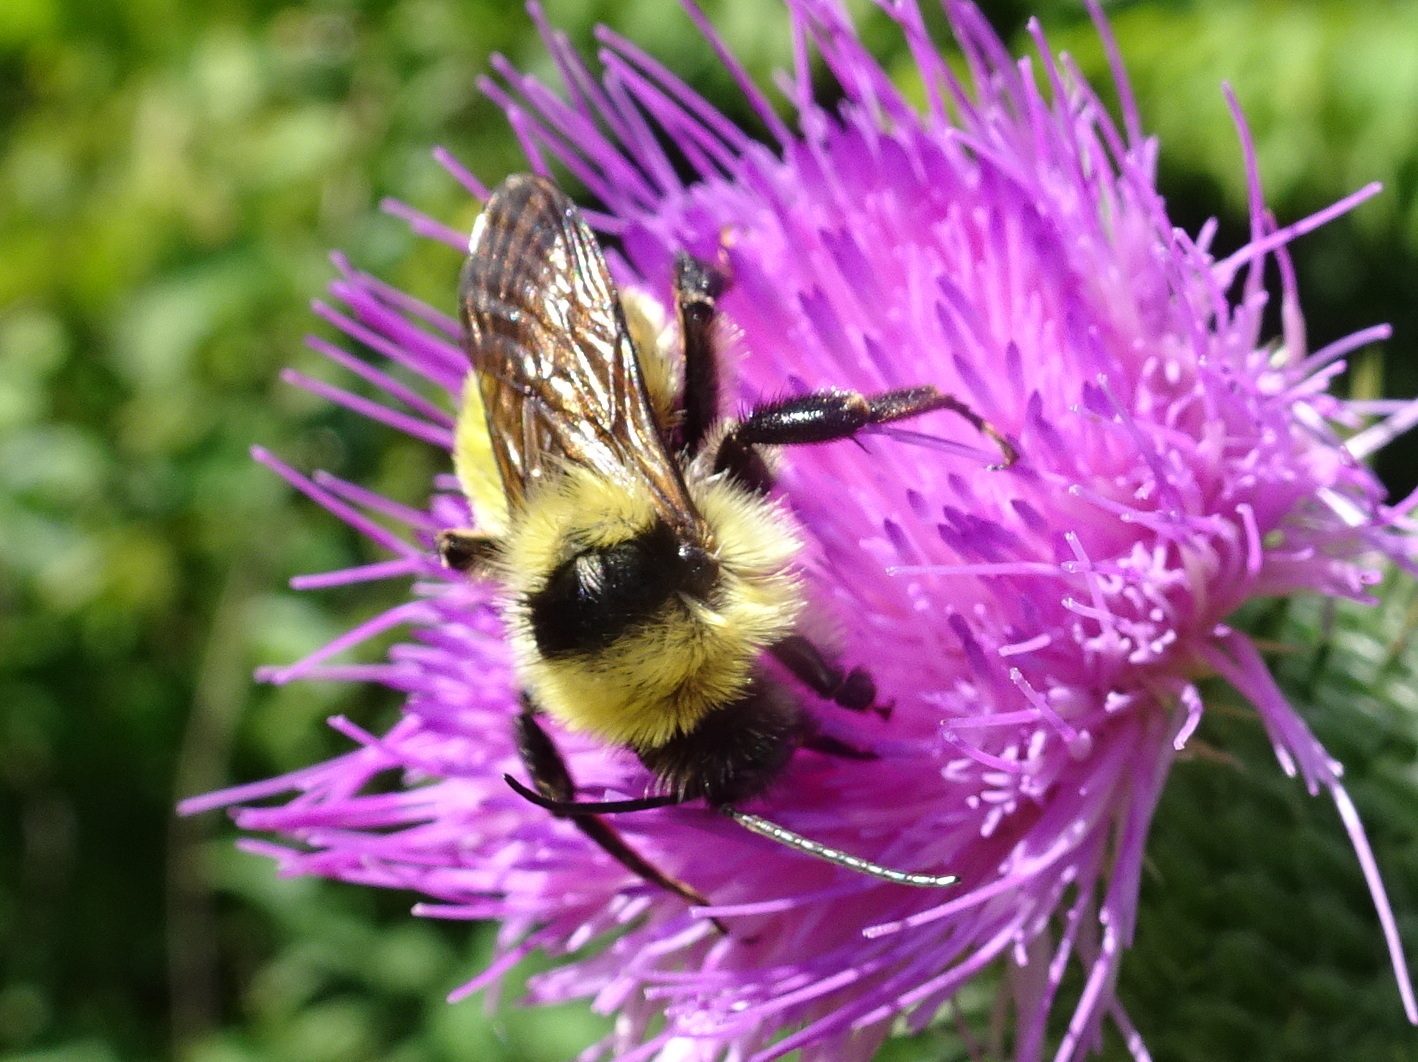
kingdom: Animalia
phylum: Arthropoda
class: Insecta
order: Hymenoptera
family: Apidae
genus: Bombus
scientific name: Bombus fervidus
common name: Yellow bumble bee
